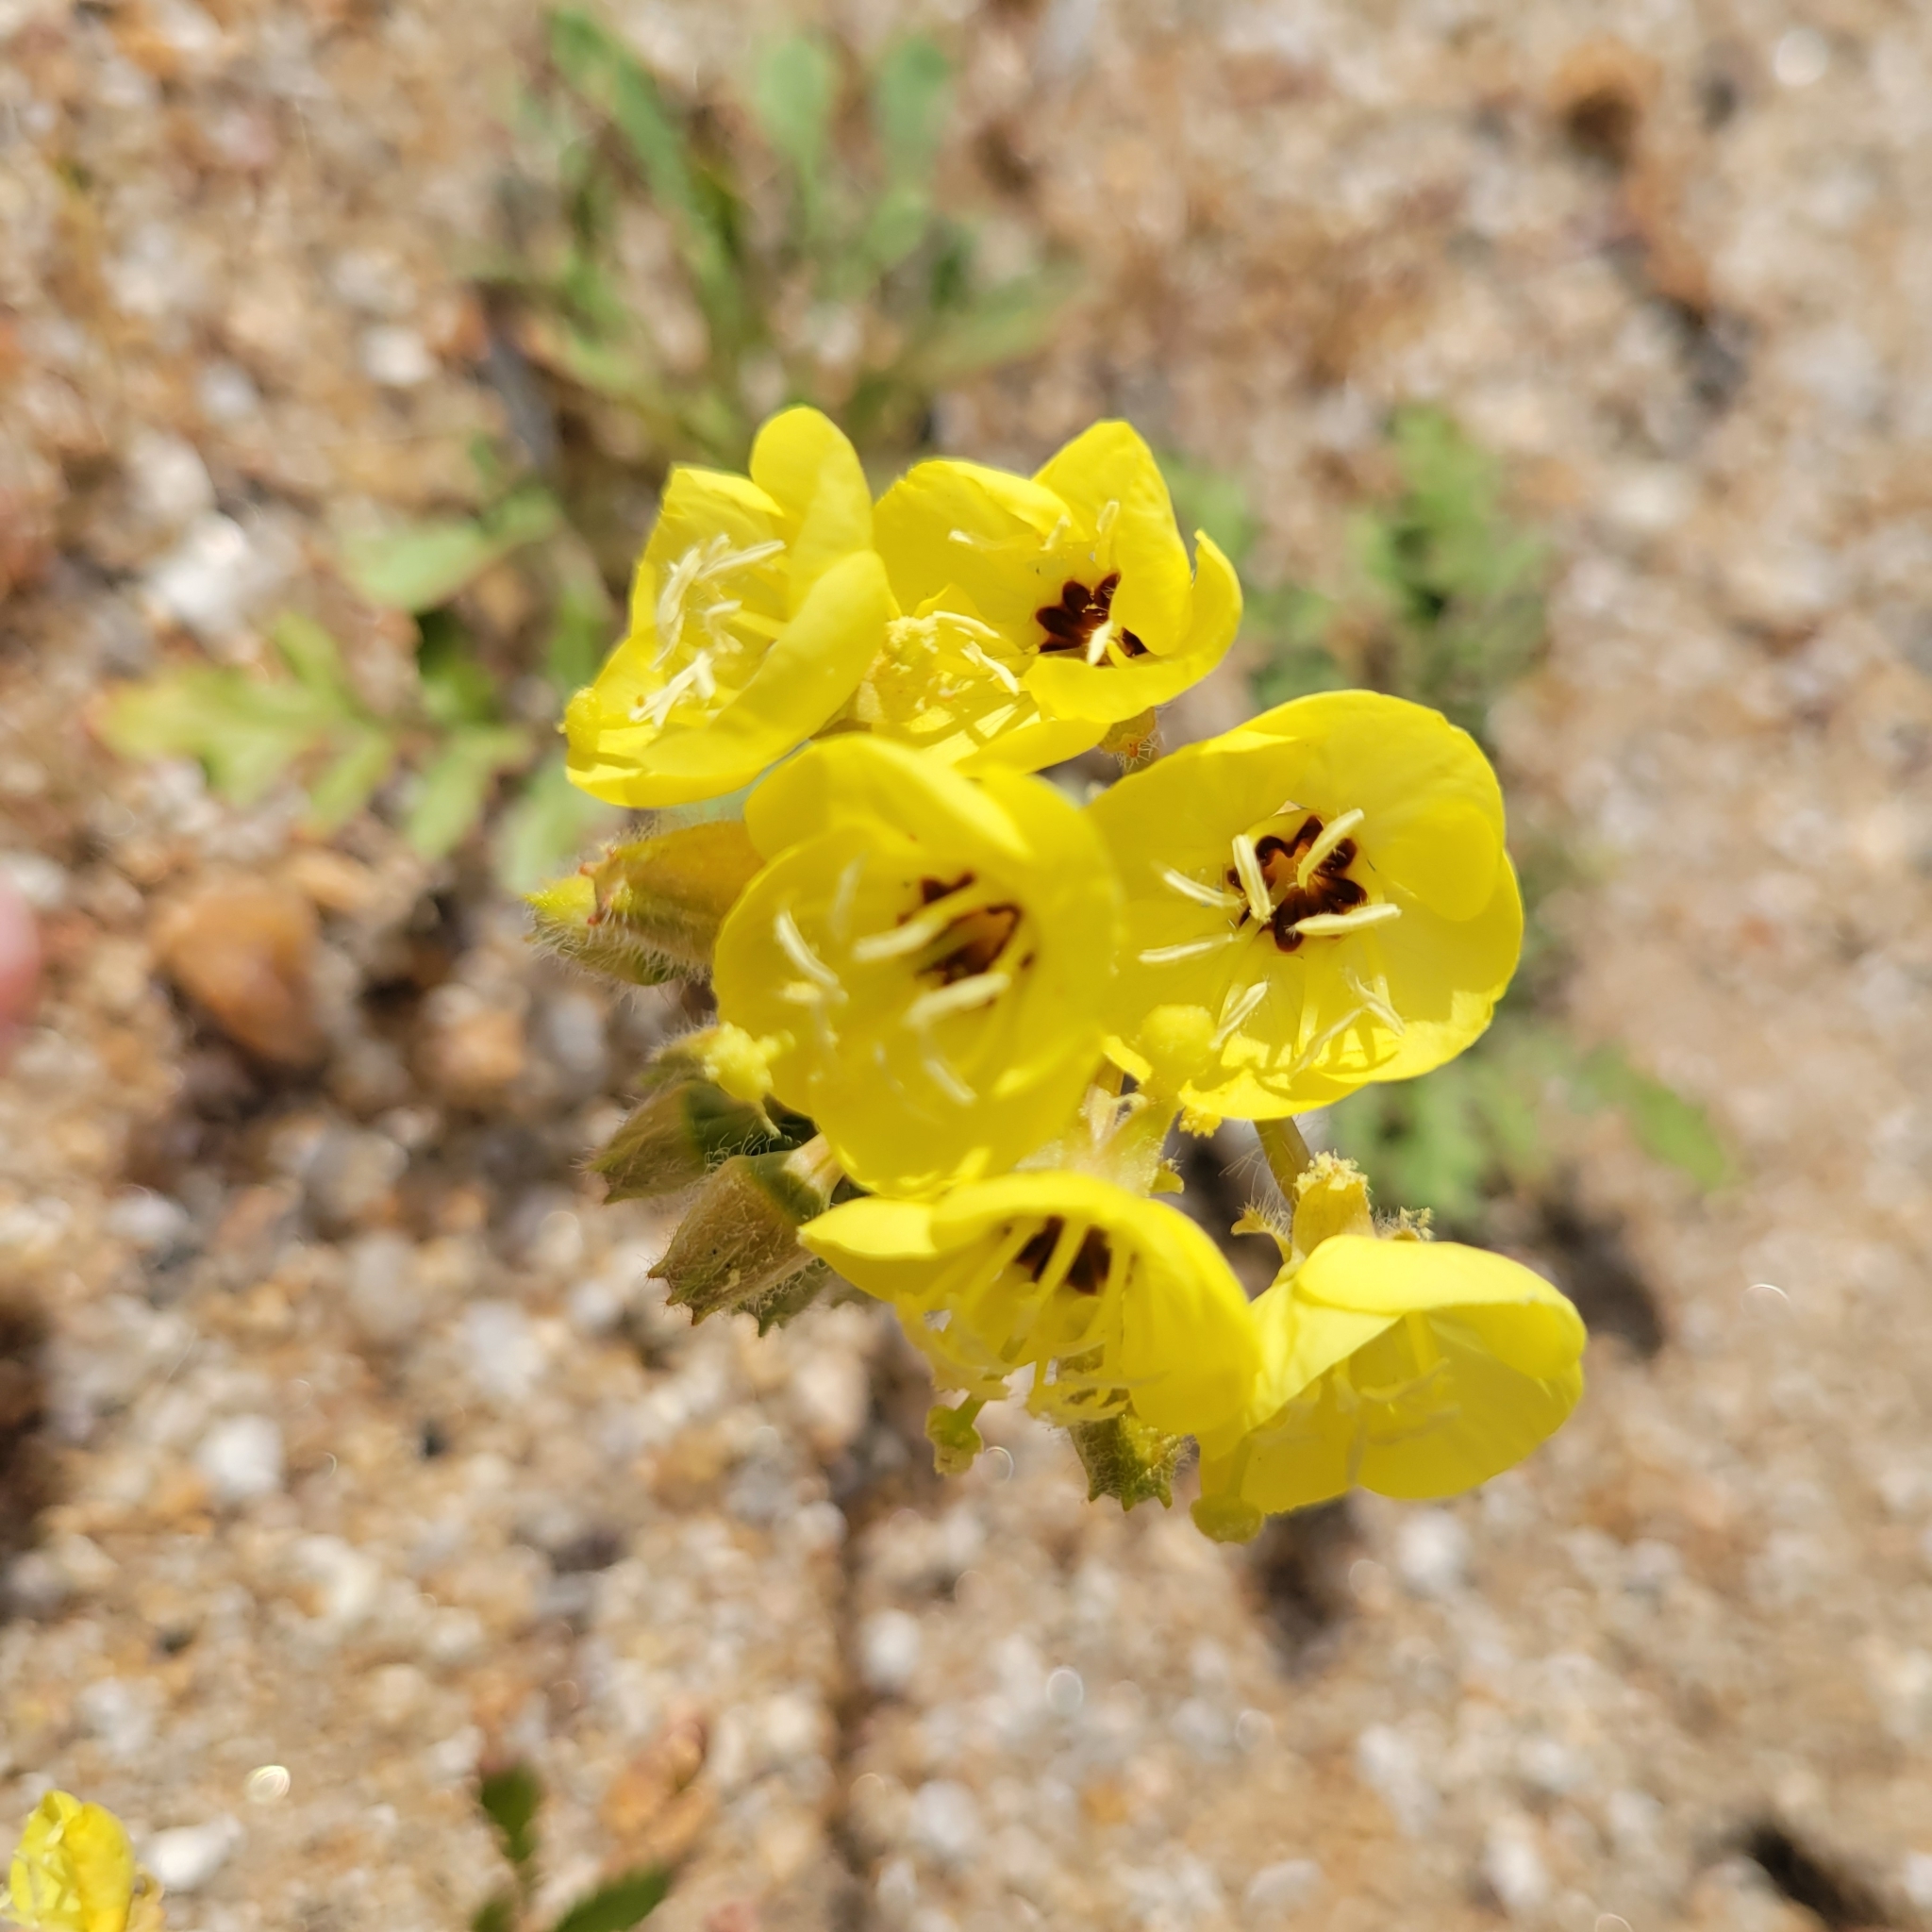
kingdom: Plantae
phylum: Tracheophyta
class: Magnoliopsida
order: Myrtales
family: Onagraceae
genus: Chylismia
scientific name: Chylismia claviformis
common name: Browneyes
